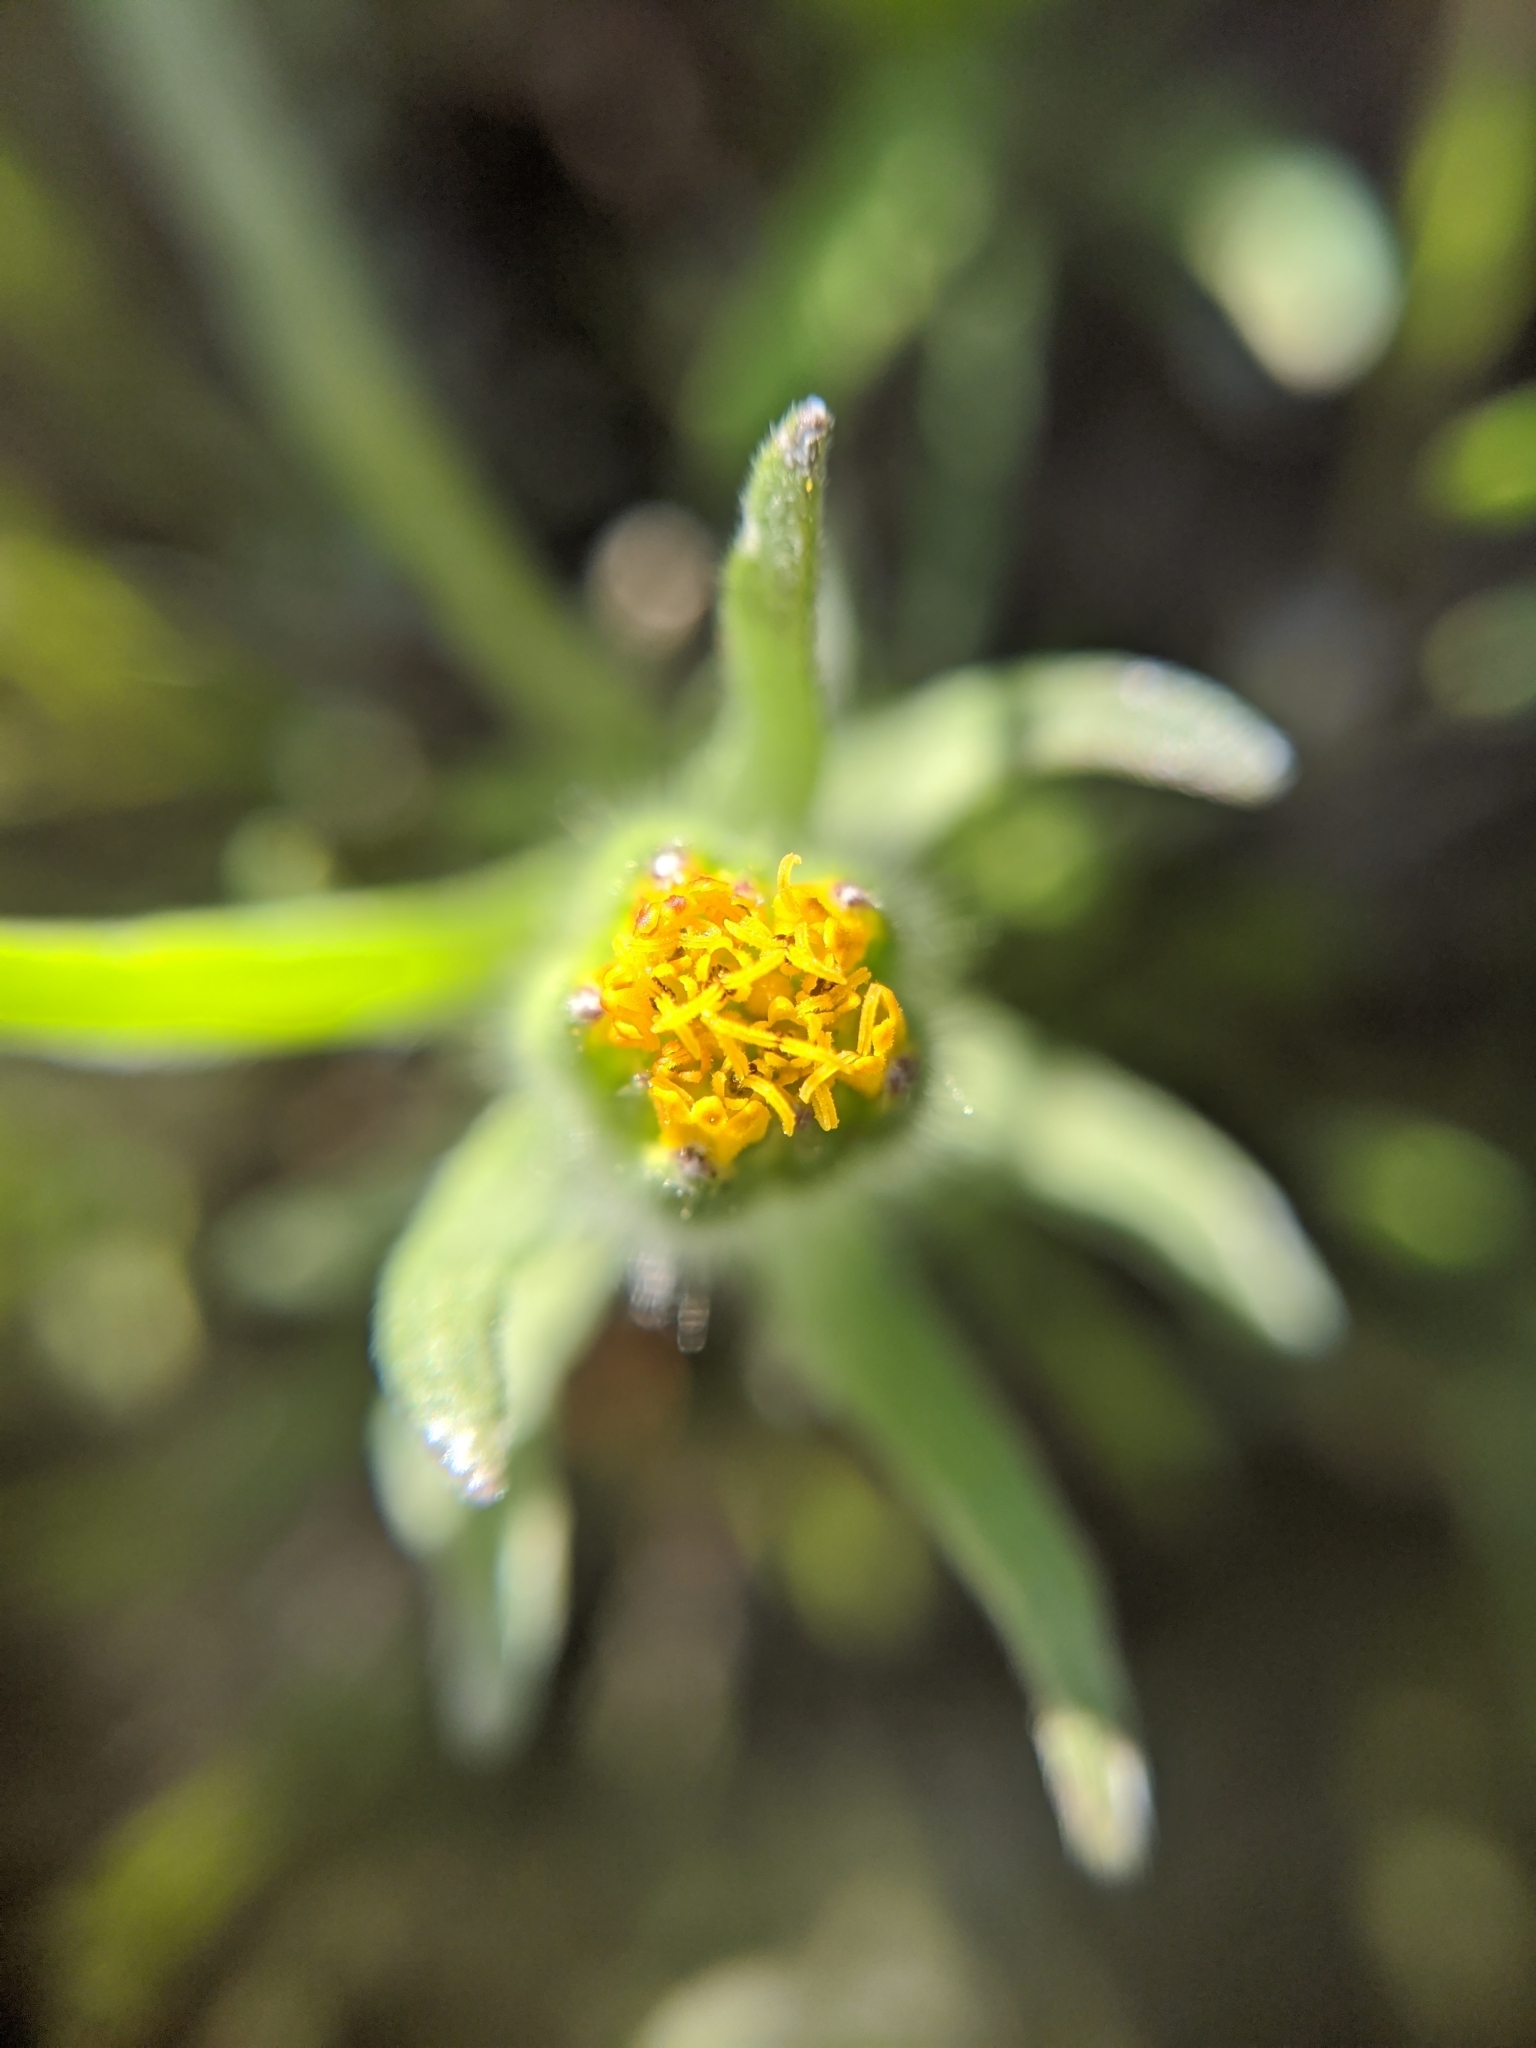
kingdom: Plantae
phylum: Tracheophyta
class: Magnoliopsida
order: Asterales
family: Asteraceae
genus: Achyrachaena
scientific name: Achyrachaena mollis
